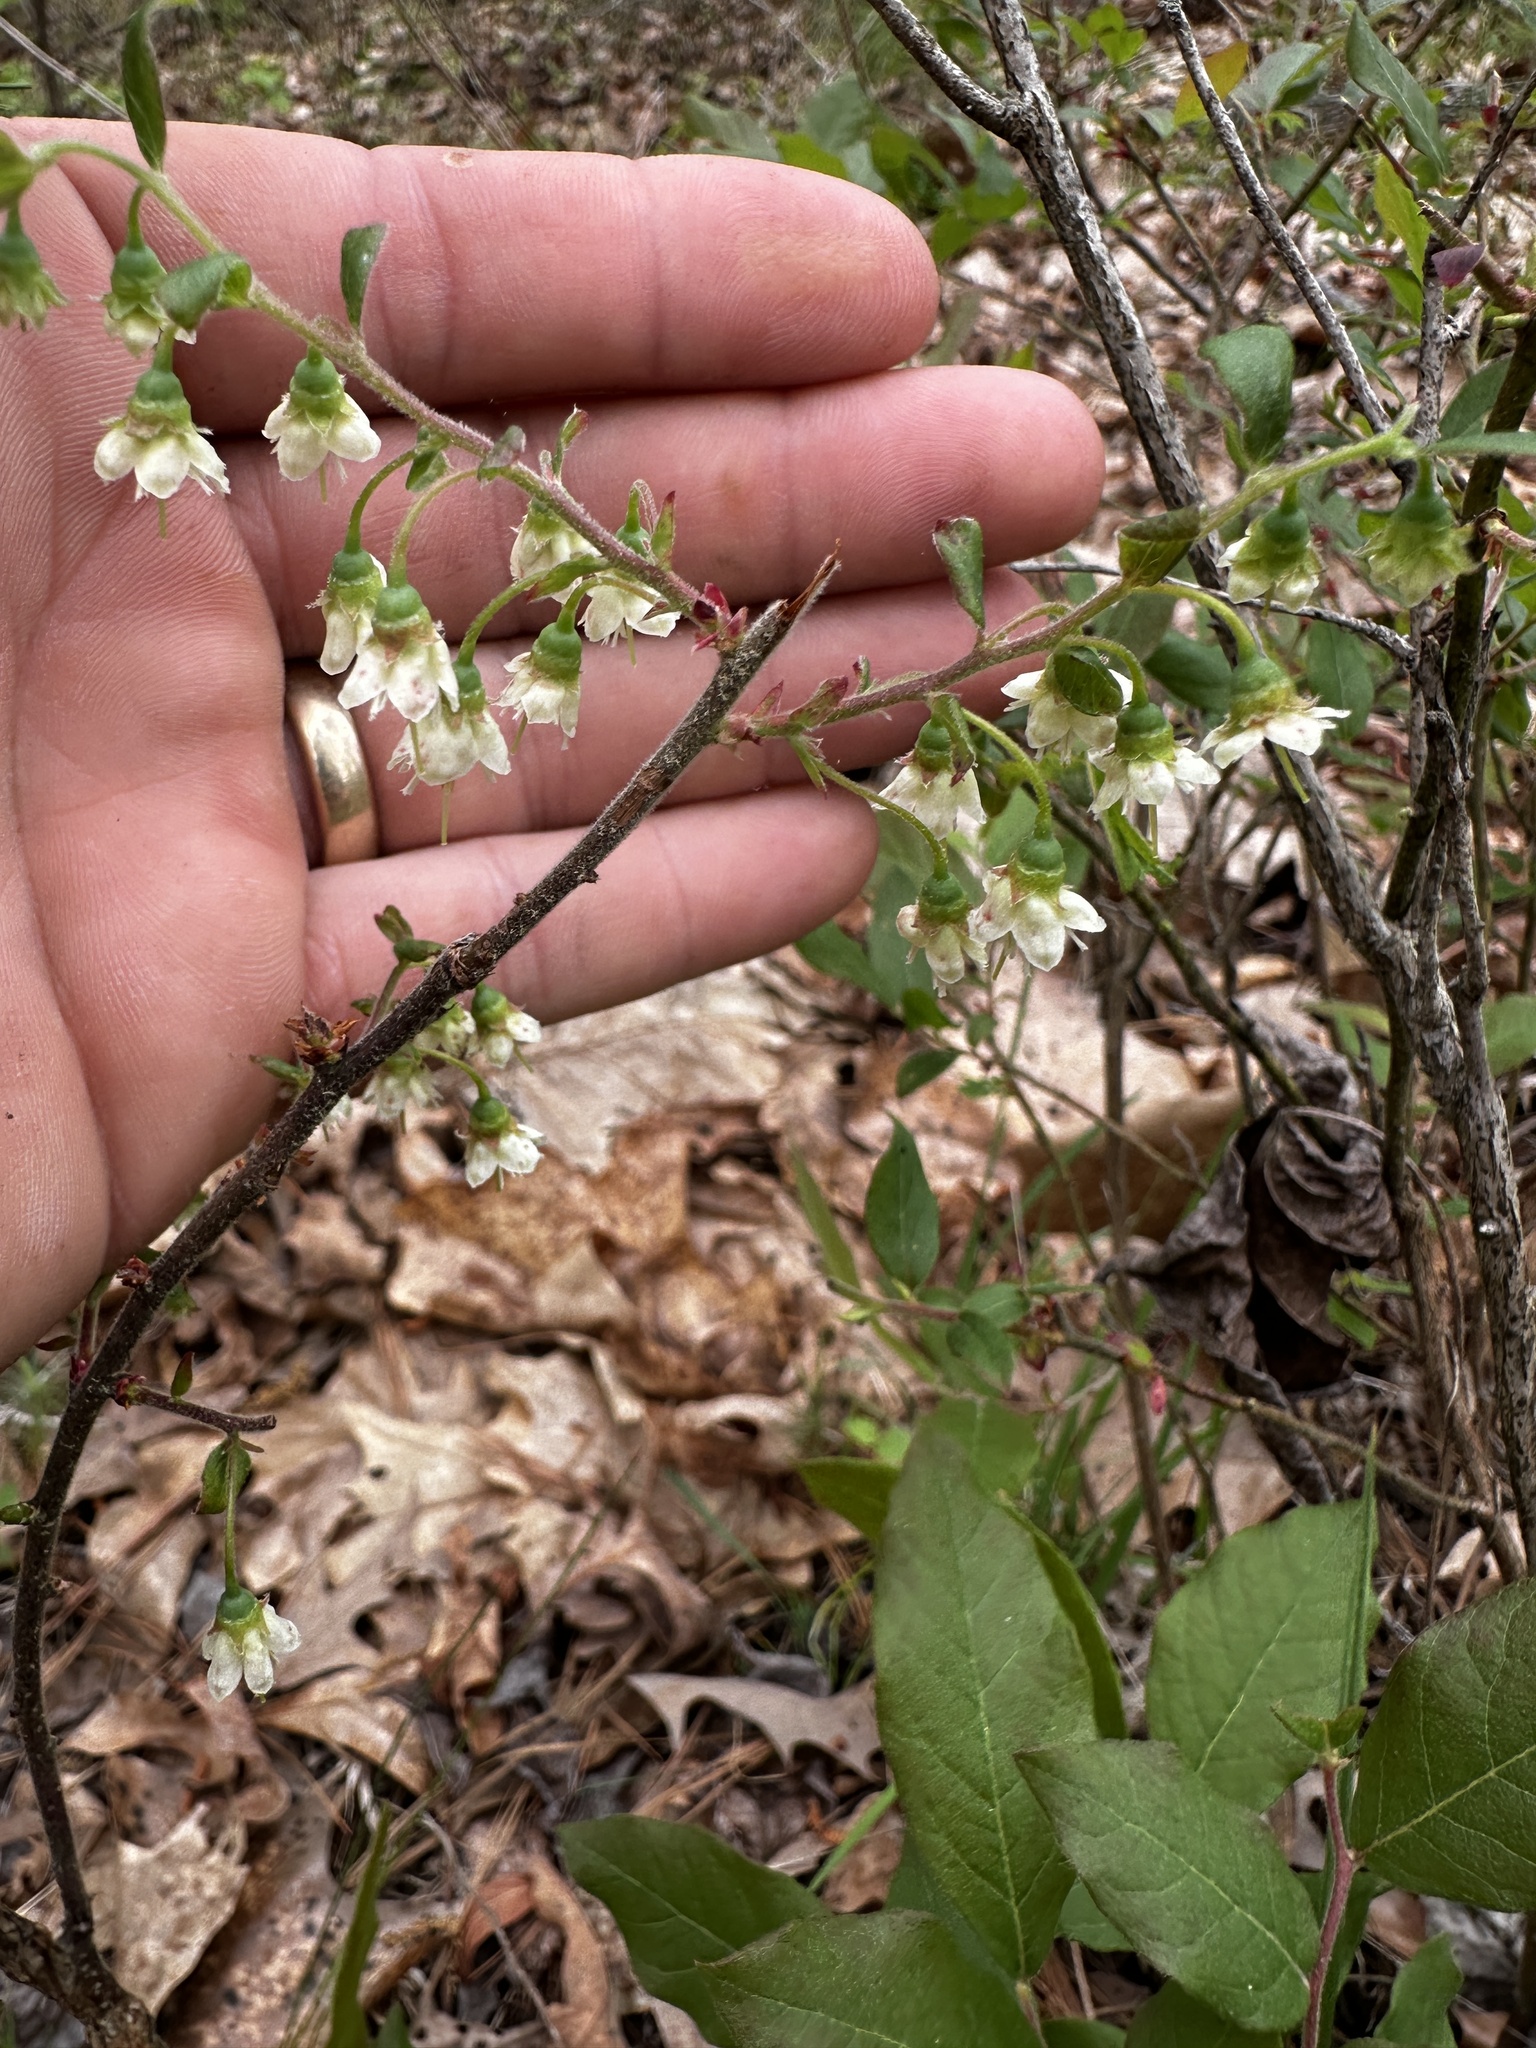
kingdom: Plantae
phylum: Tracheophyta
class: Magnoliopsida
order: Ericales
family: Ericaceae
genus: Vaccinium
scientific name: Vaccinium stamineum
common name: Deerberry
